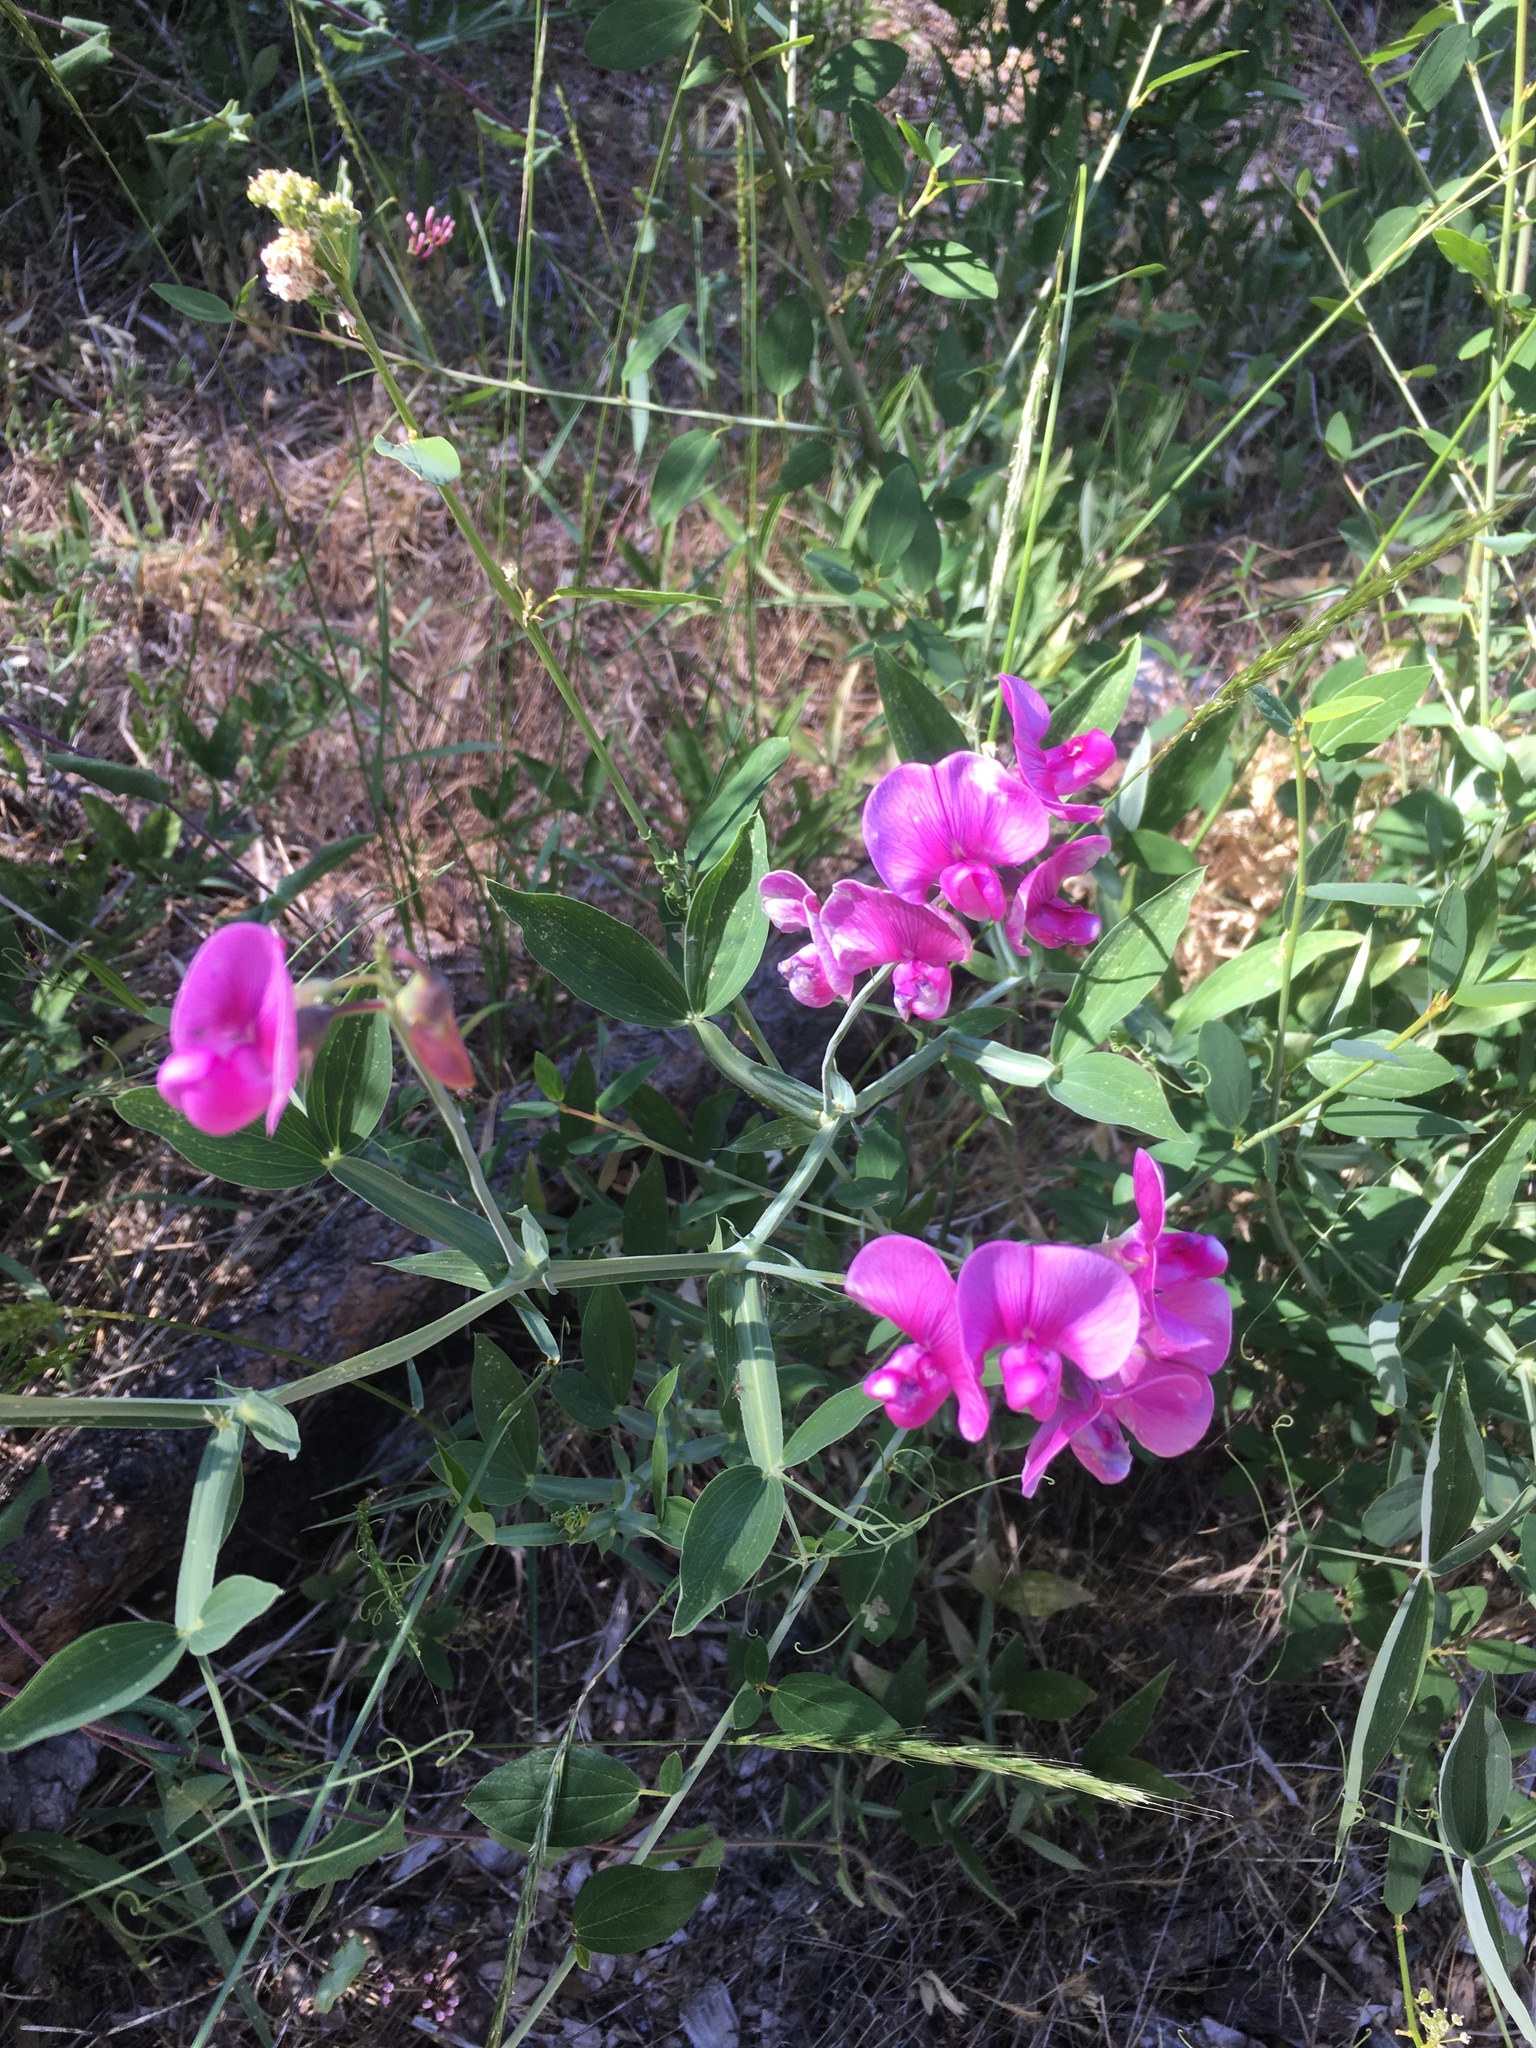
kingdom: Plantae
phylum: Tracheophyta
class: Magnoliopsida
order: Fabales
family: Fabaceae
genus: Lathyrus
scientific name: Lathyrus latifolius
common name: Perennial pea
